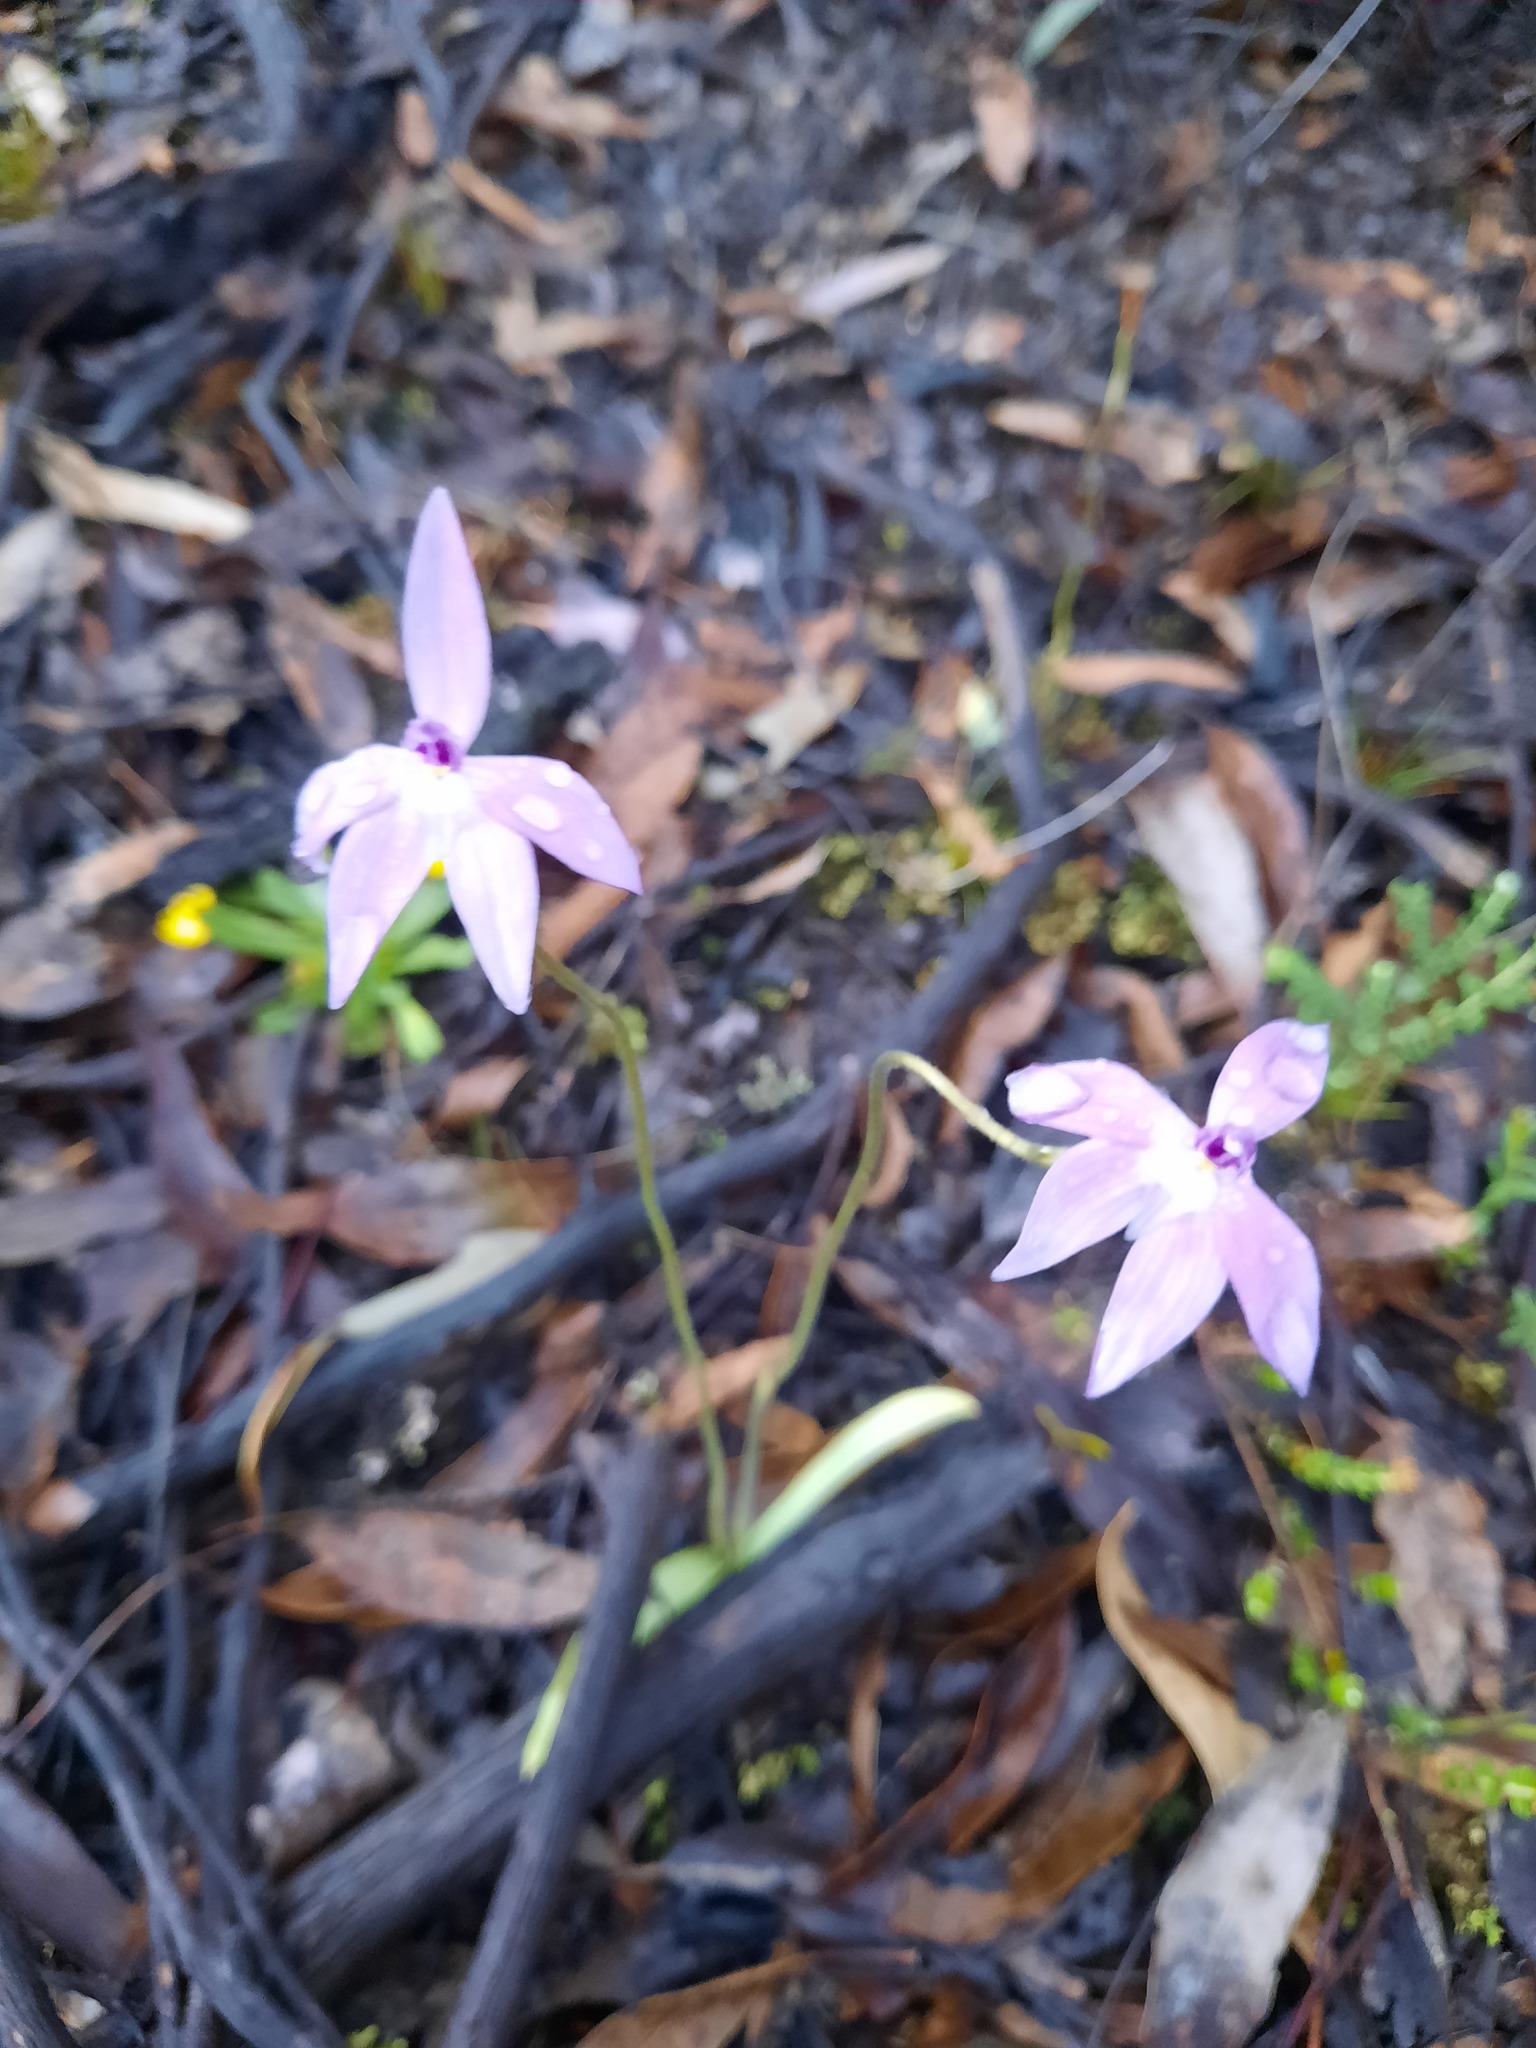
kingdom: Plantae
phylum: Tracheophyta
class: Liliopsida
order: Asparagales
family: Orchidaceae
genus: Caladenia
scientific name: Caladenia major
